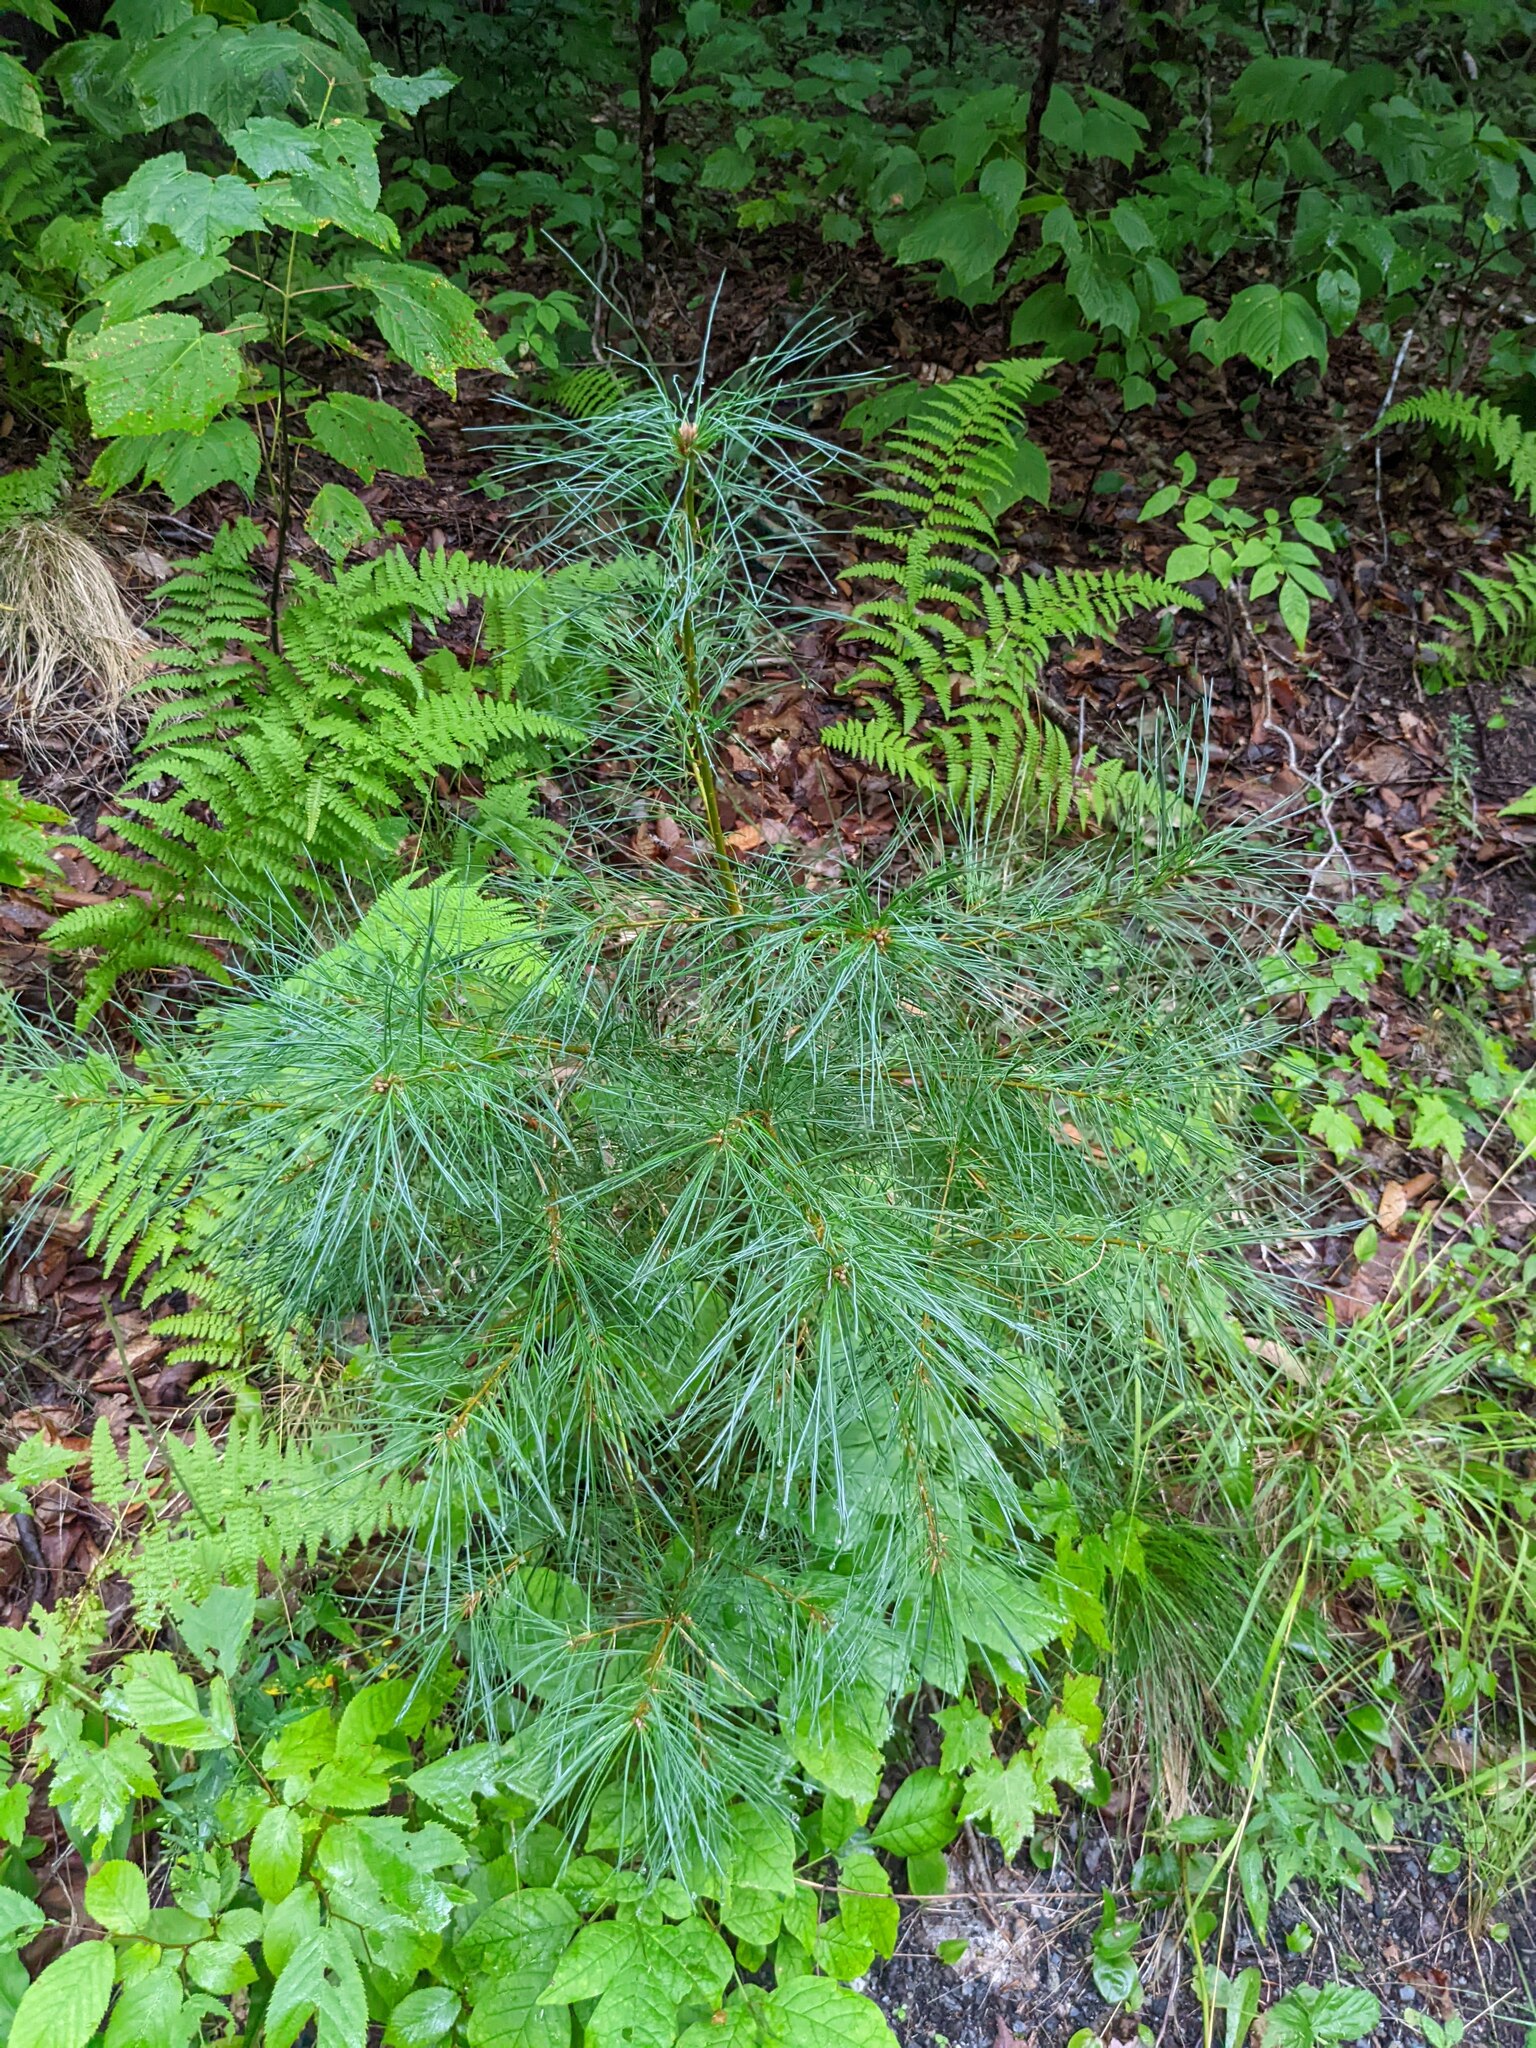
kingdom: Plantae
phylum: Tracheophyta
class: Pinopsida
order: Pinales
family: Pinaceae
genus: Pinus
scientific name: Pinus strobus
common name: Weymouth pine
